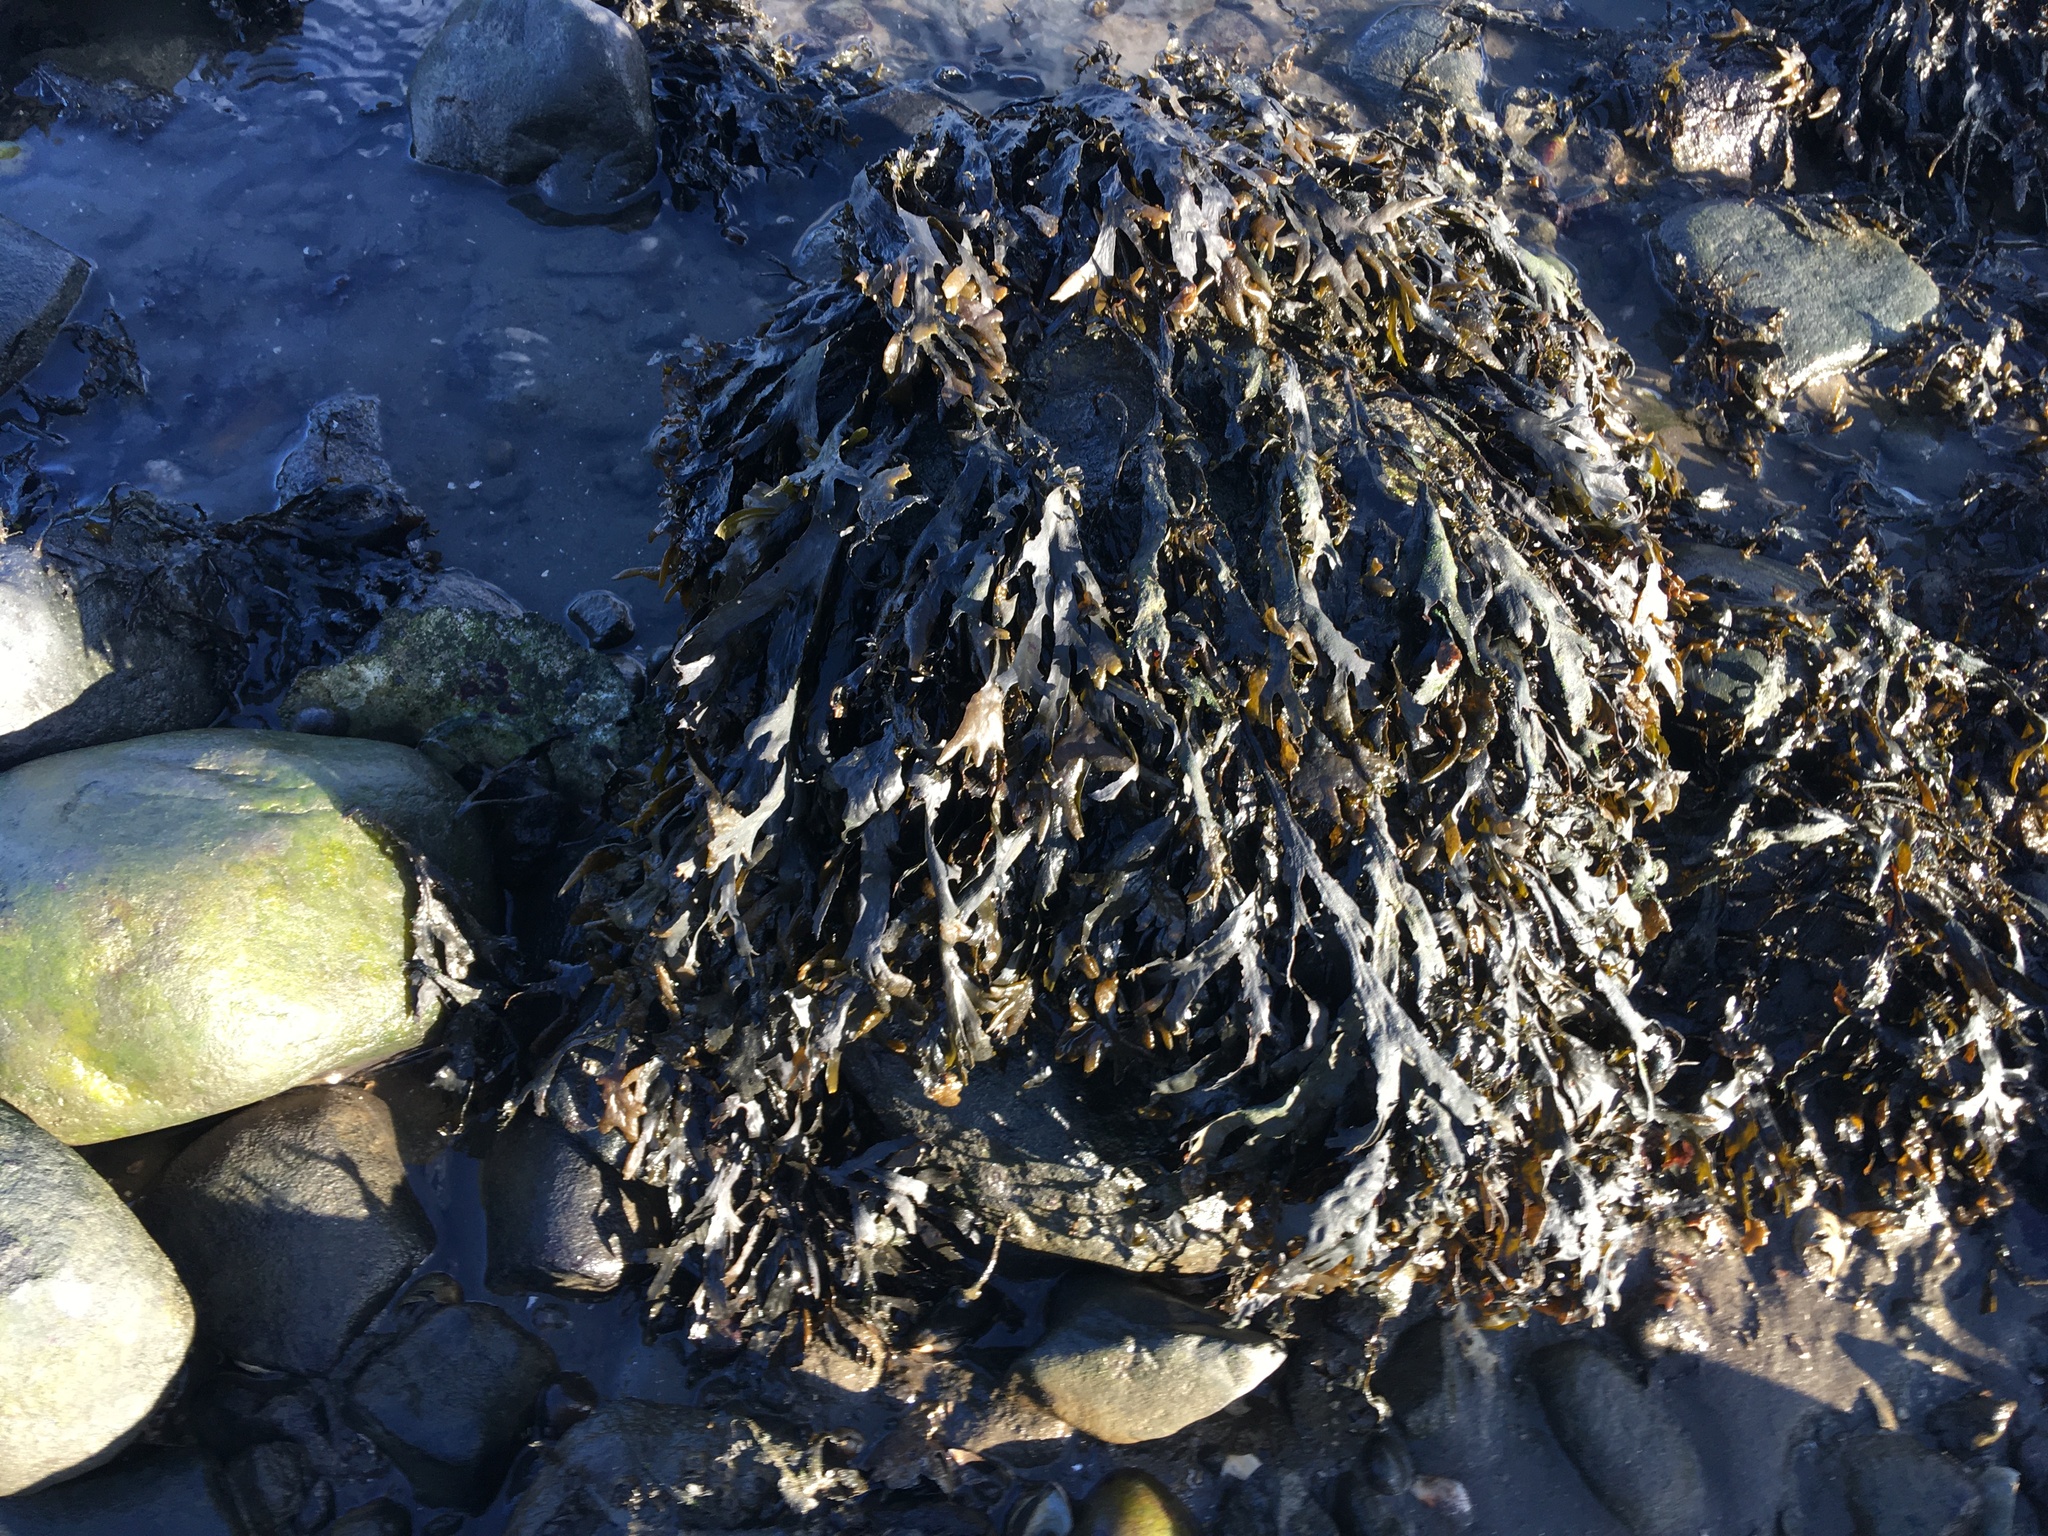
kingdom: Chromista
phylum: Ochrophyta
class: Phaeophyceae
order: Fucales
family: Fucaceae
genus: Fucus
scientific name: Fucus vesiculosus
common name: Bladder wrack
